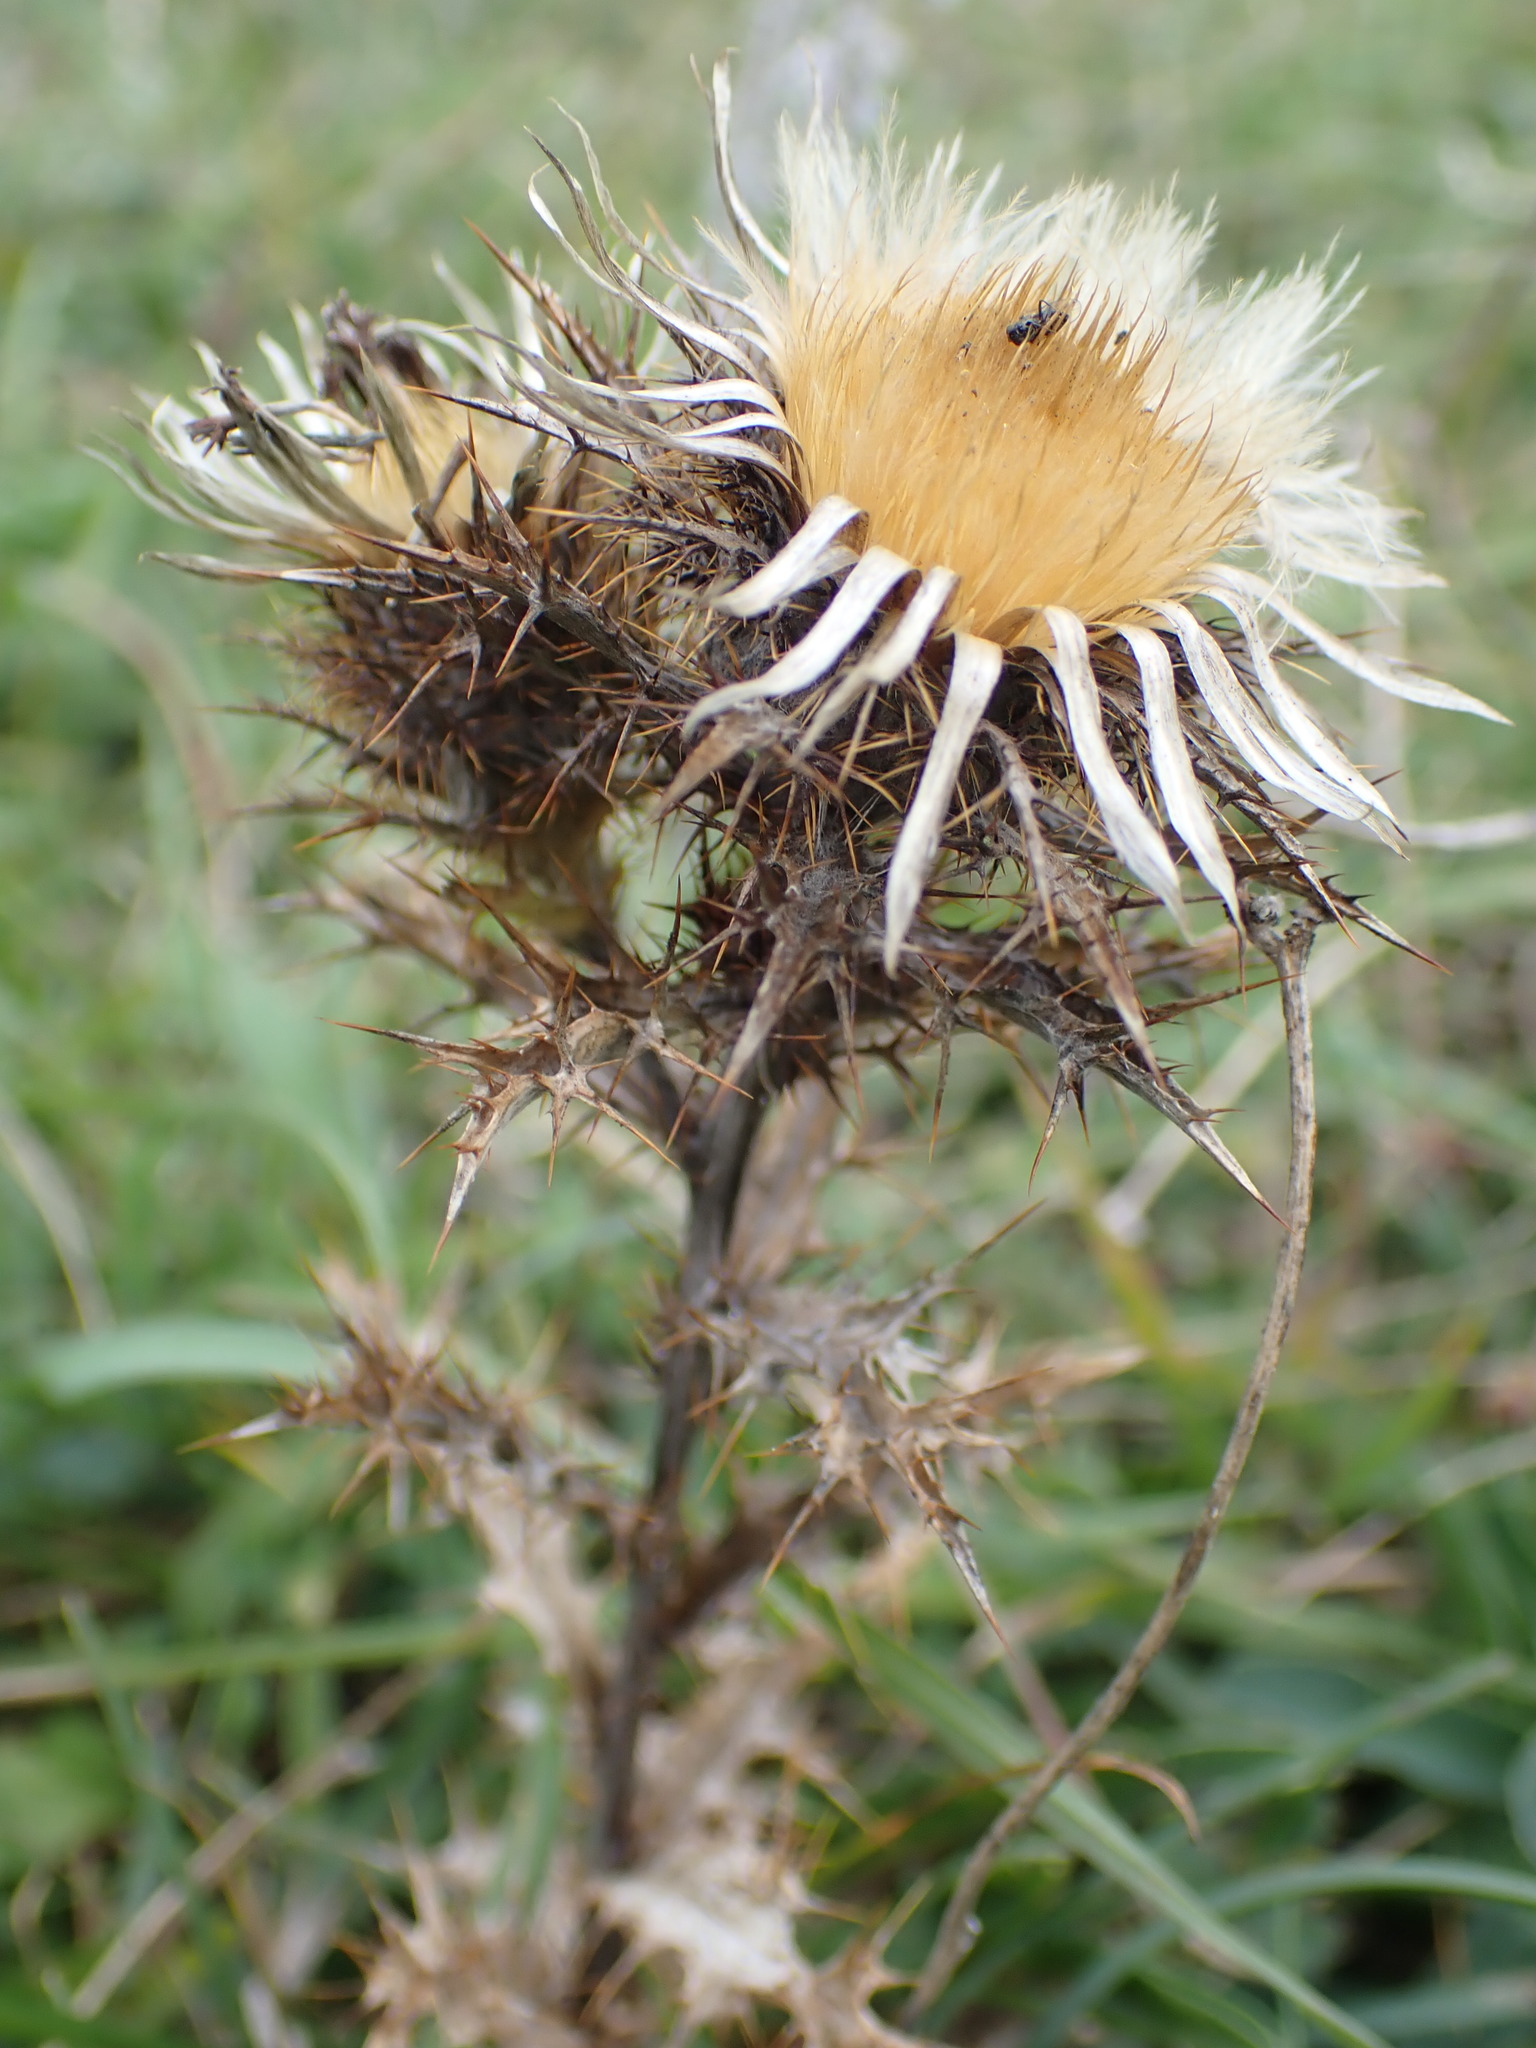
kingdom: Plantae
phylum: Tracheophyta
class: Magnoliopsida
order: Asterales
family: Asteraceae
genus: Carlina
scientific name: Carlina vulgaris
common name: Carline thistle
